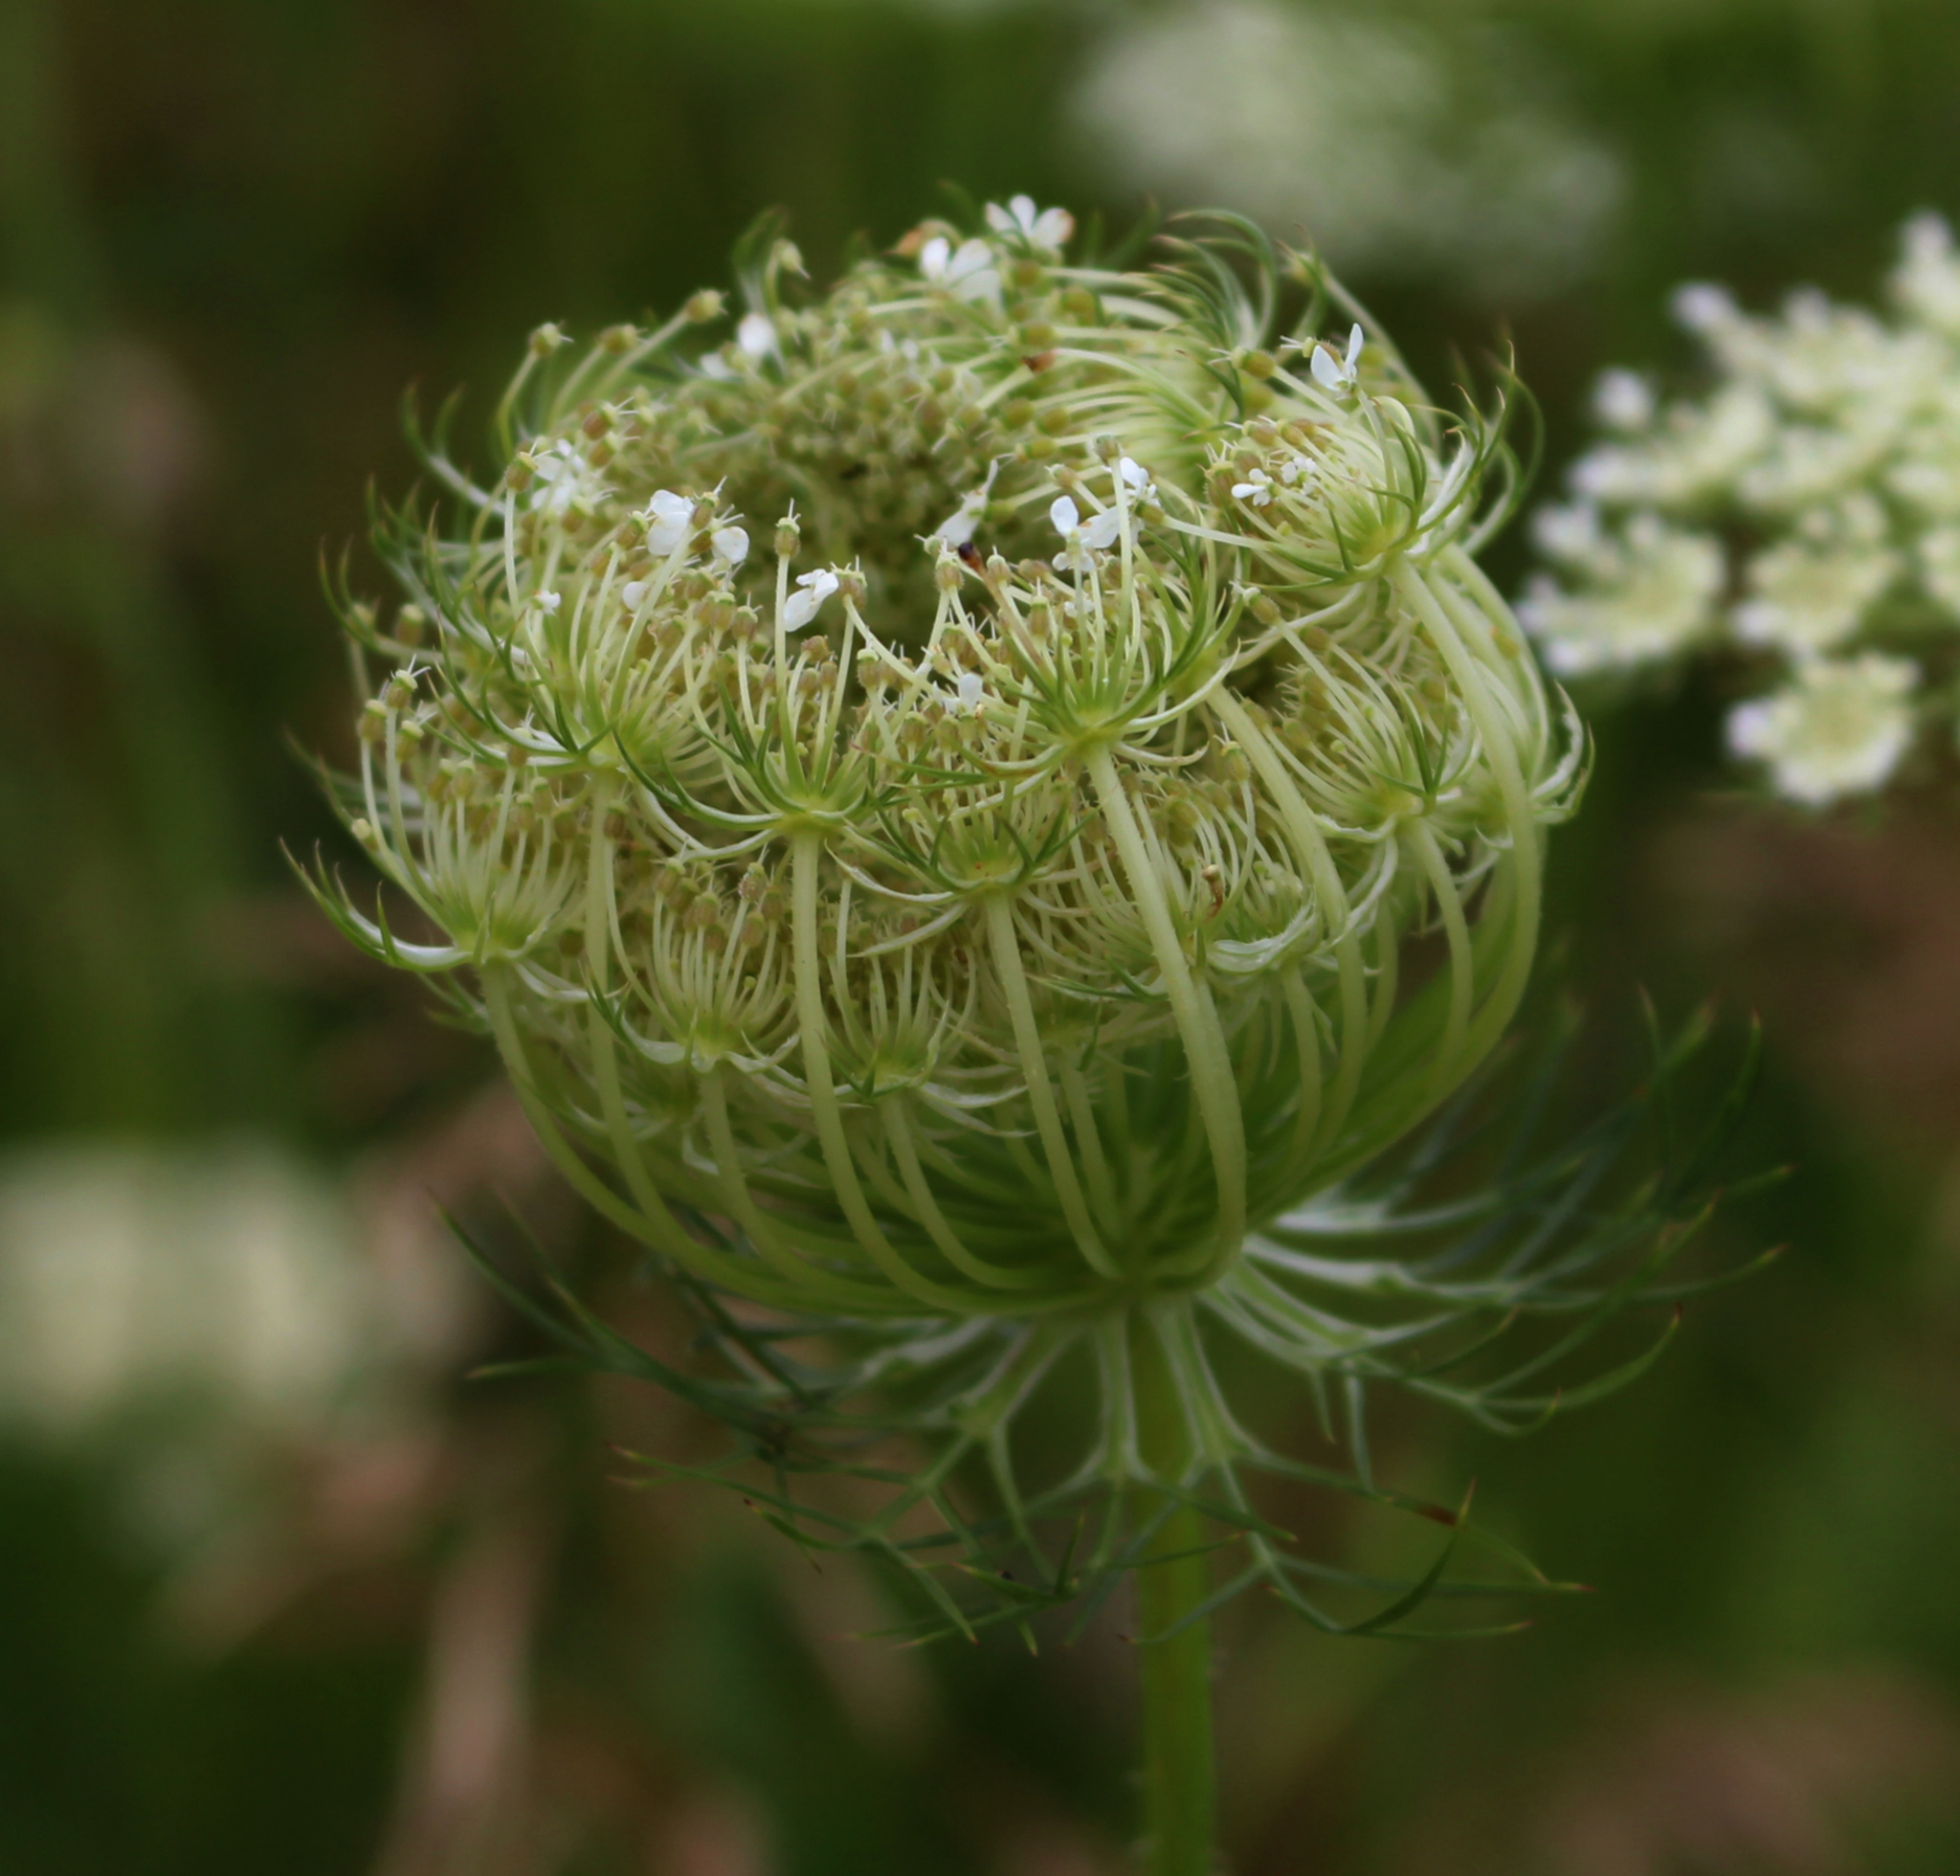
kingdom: Plantae
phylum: Tracheophyta
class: Magnoliopsida
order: Apiales
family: Apiaceae
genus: Daucus
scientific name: Daucus carota
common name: Wild carrot
